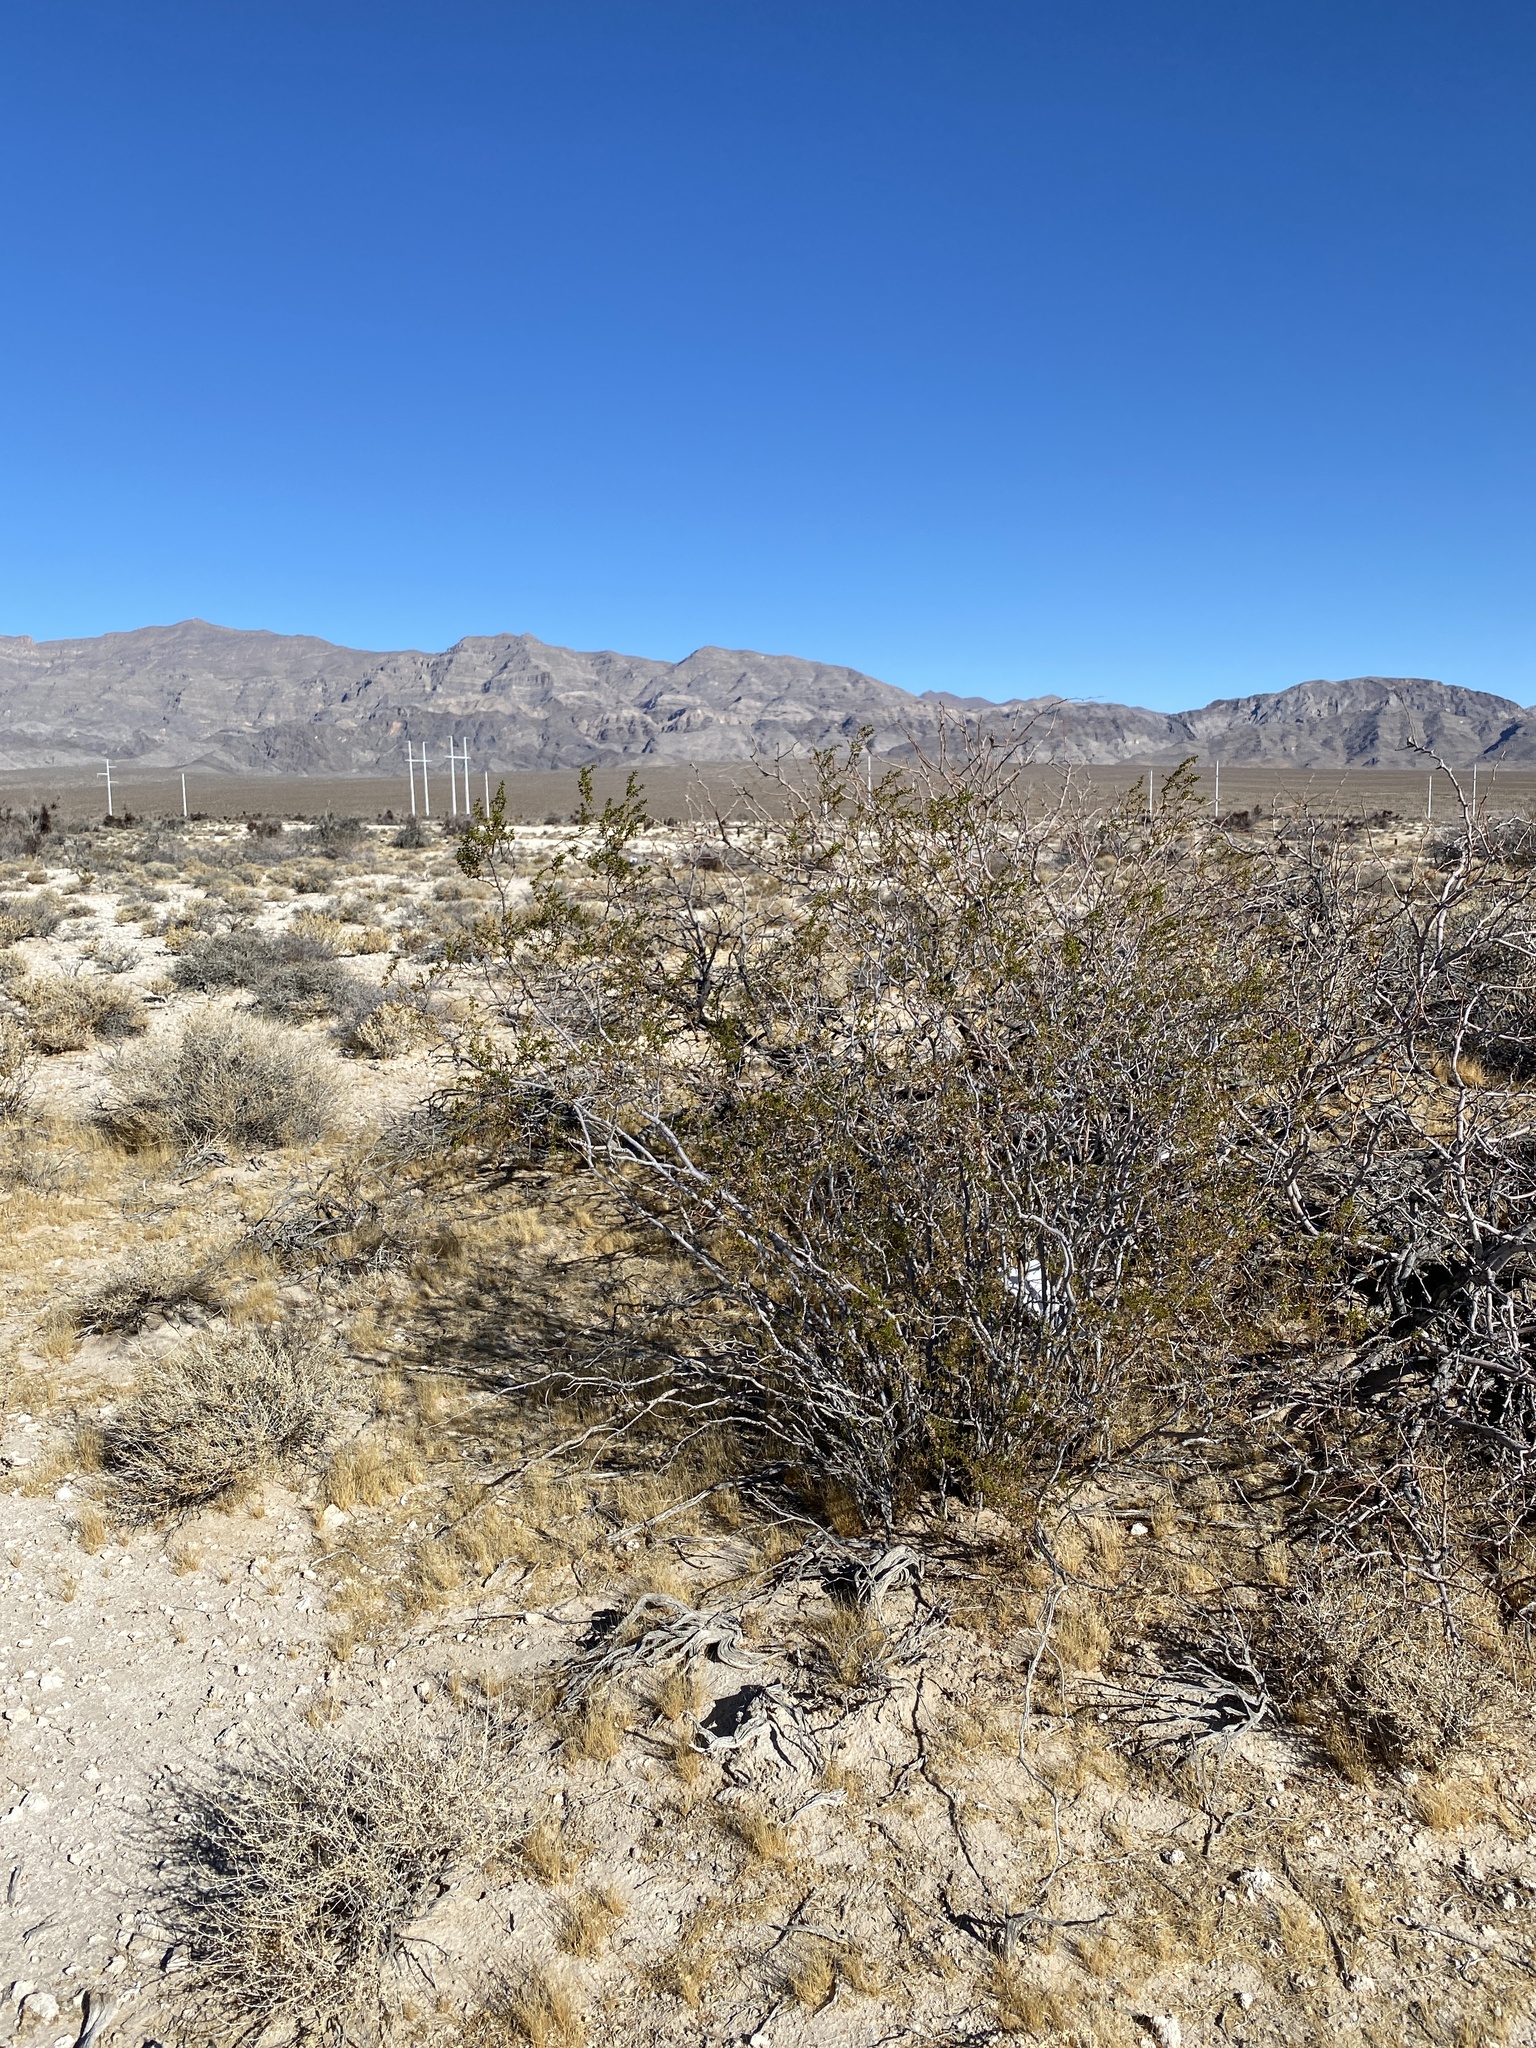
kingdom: Plantae
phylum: Tracheophyta
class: Magnoliopsida
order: Zygophyllales
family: Zygophyllaceae
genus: Larrea
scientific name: Larrea tridentata
